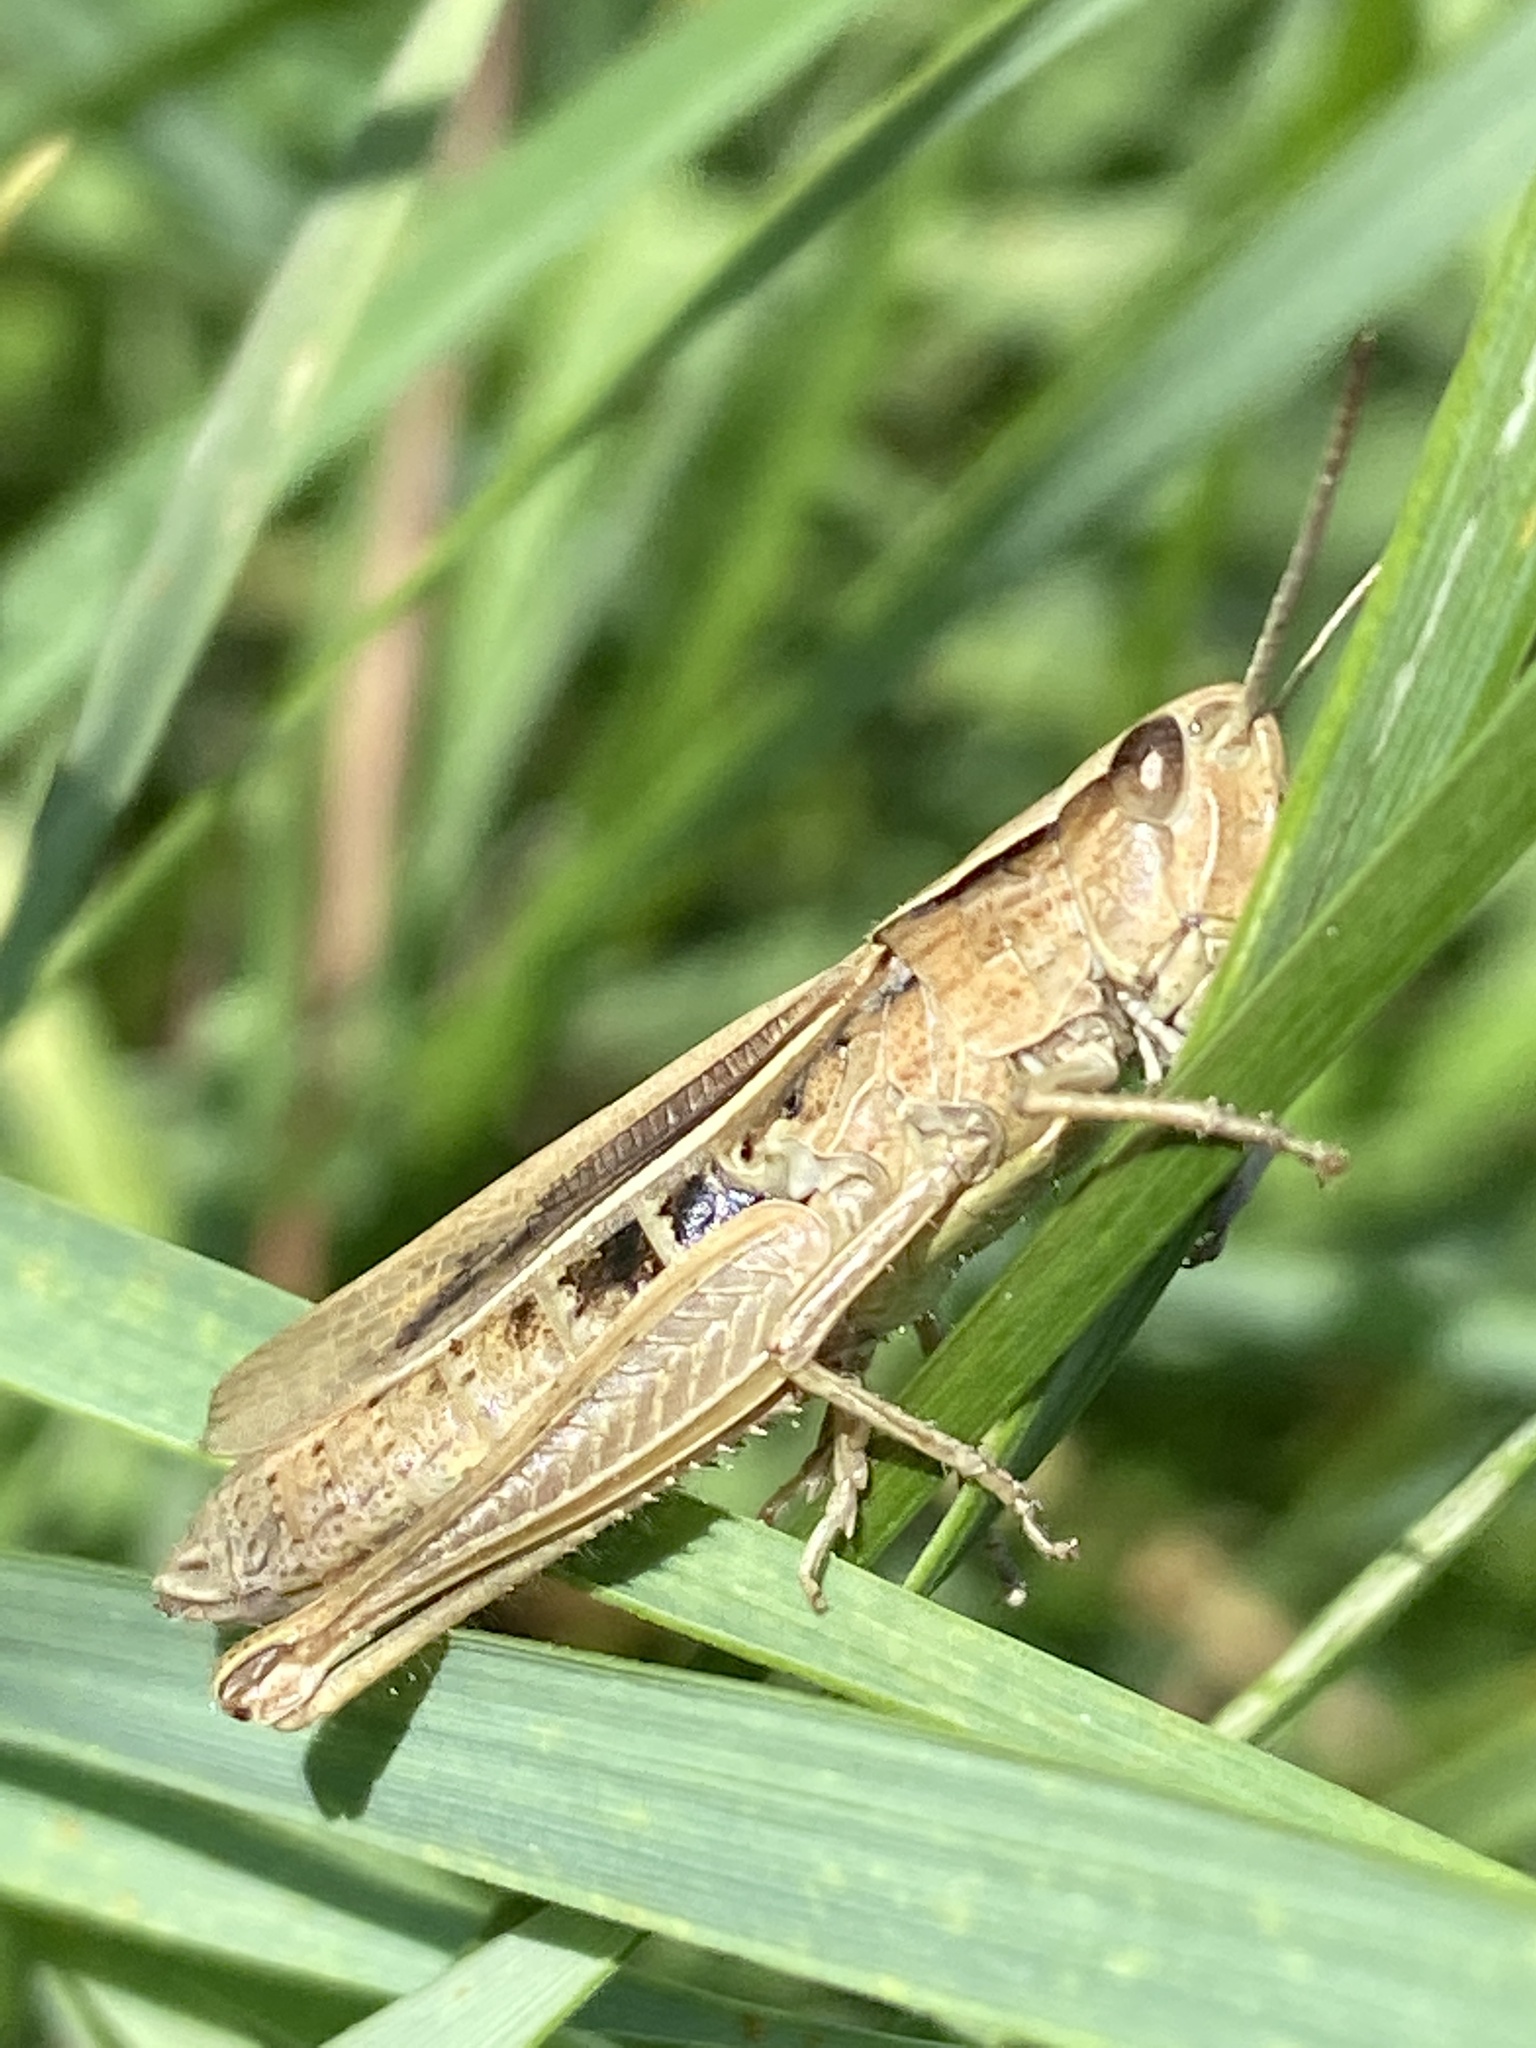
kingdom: Animalia
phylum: Arthropoda
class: Insecta
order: Orthoptera
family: Acrididae
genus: Chorthippus
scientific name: Chorthippus albomarginatus
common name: Lesser marsh grasshopper
